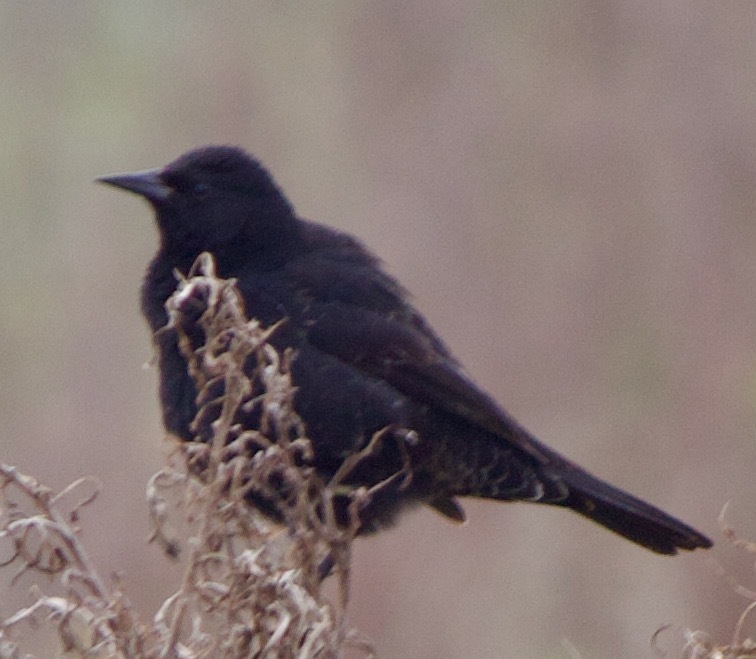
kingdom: Animalia
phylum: Chordata
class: Aves
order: Passeriformes
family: Icteridae
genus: Agelasticus
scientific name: Agelasticus thilius
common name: Yellow-winged blackbird
